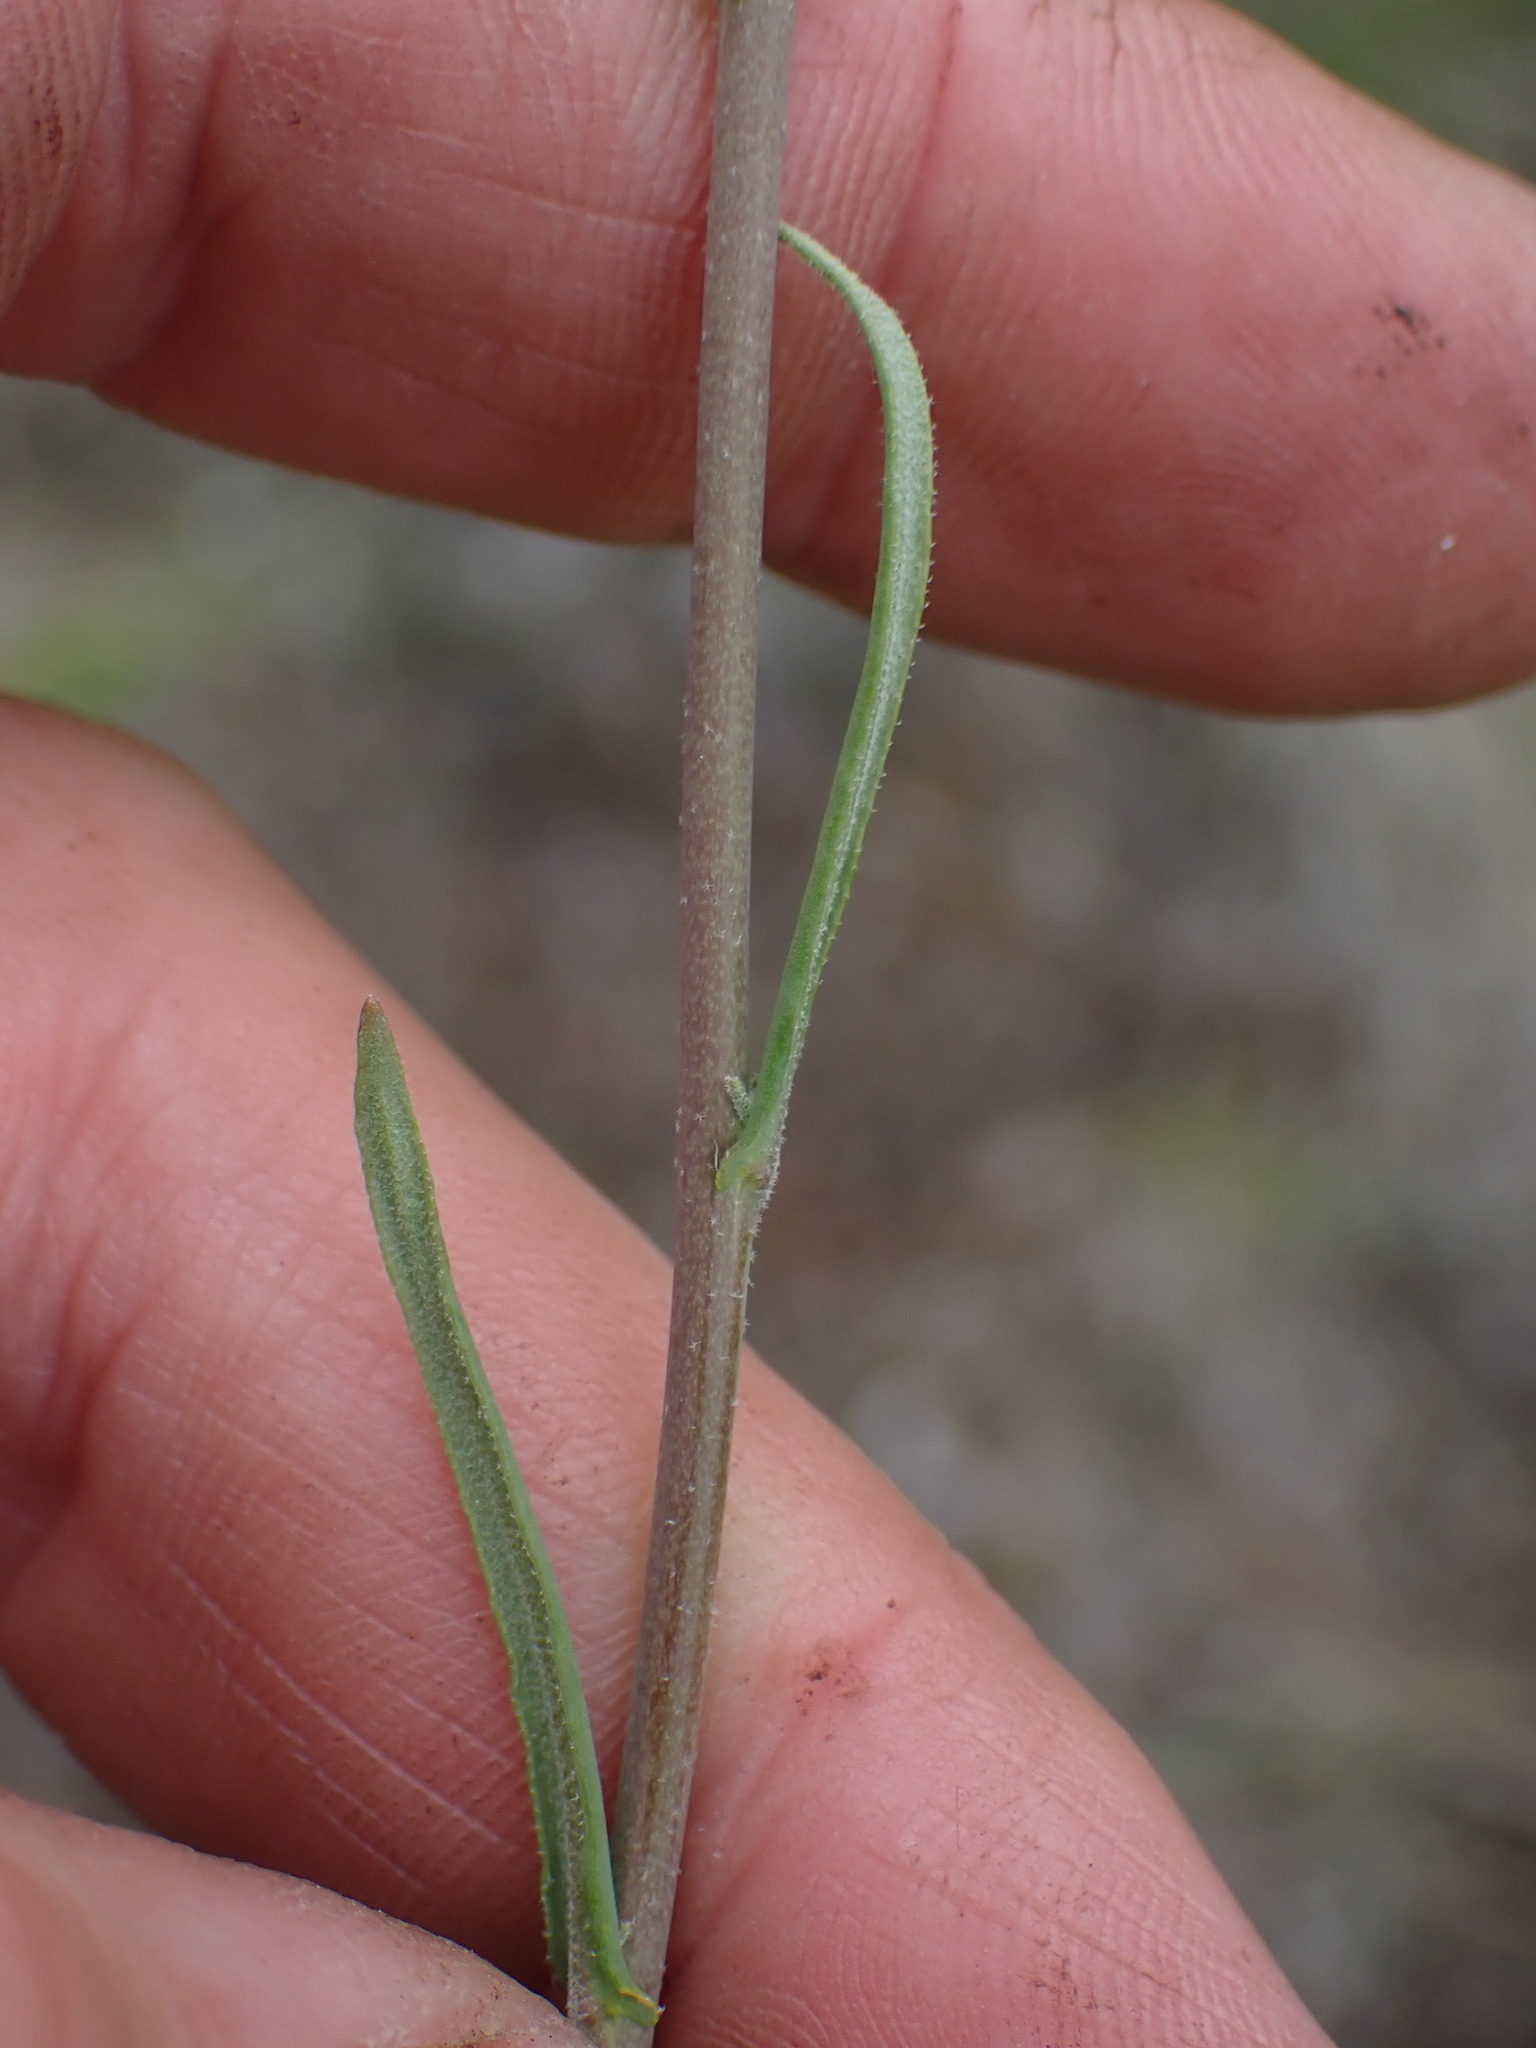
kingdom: Plantae
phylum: Tracheophyta
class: Magnoliopsida
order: Brassicales
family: Brassicaceae
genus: Boechera
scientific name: Boechera retrofracta
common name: Dangling suncress
